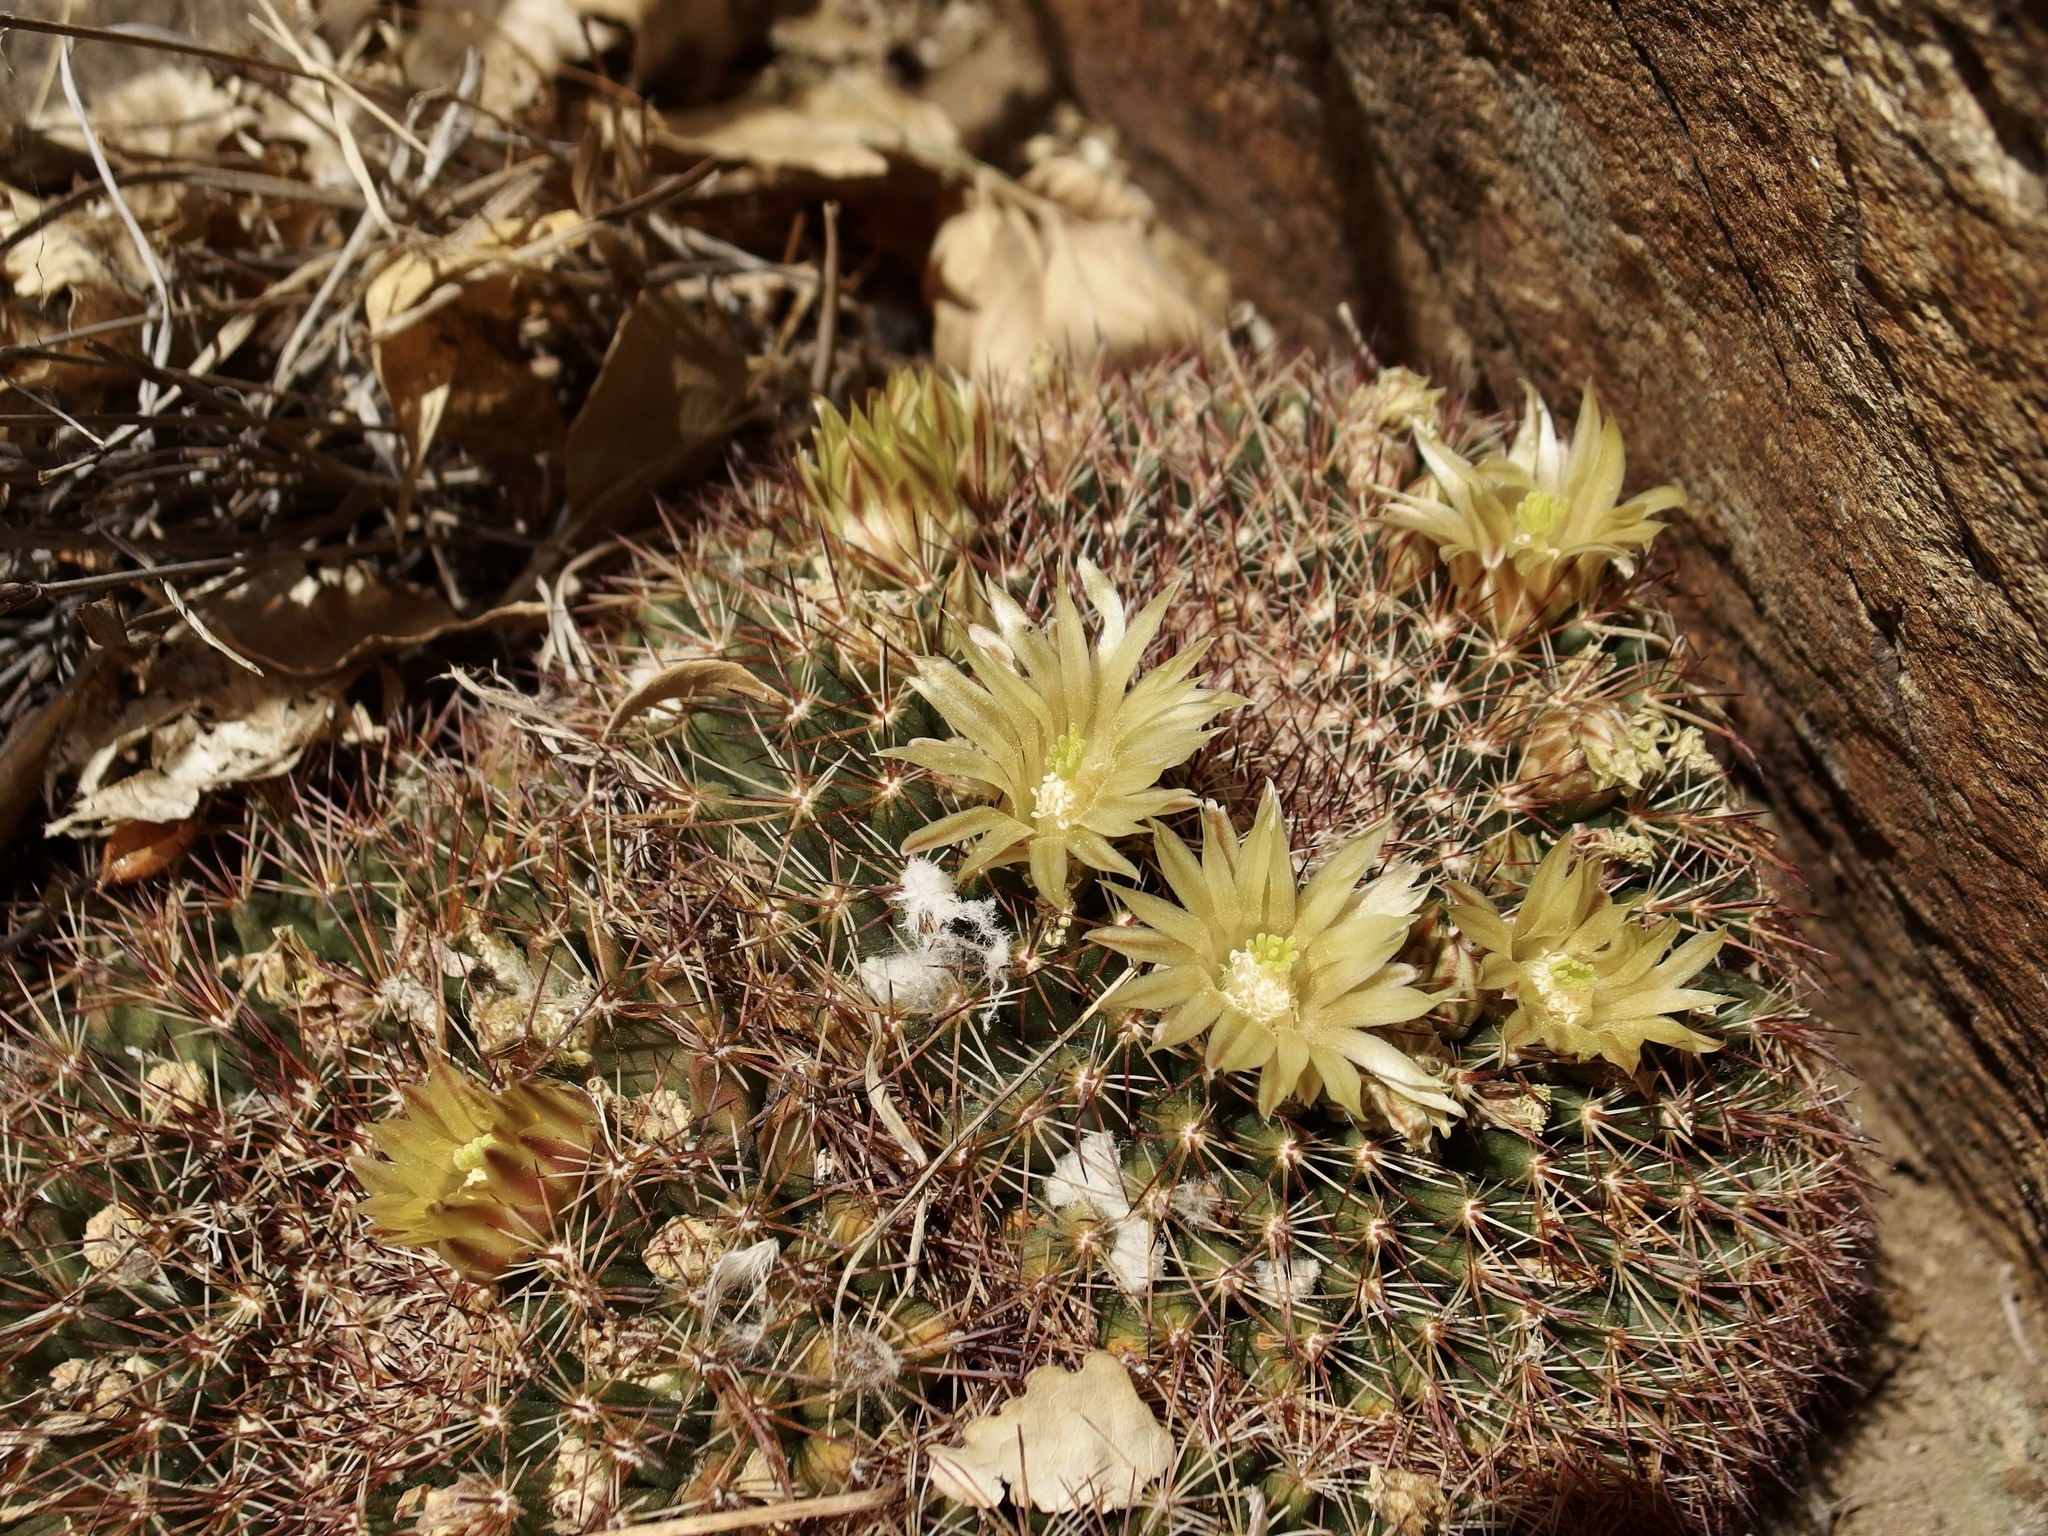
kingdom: Plantae
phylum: Tracheophyta
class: Magnoliopsida
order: Caryophyllales
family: Cactaceae
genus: Mammillaria
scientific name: Mammillaria heyderi
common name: Little nipple cactus
